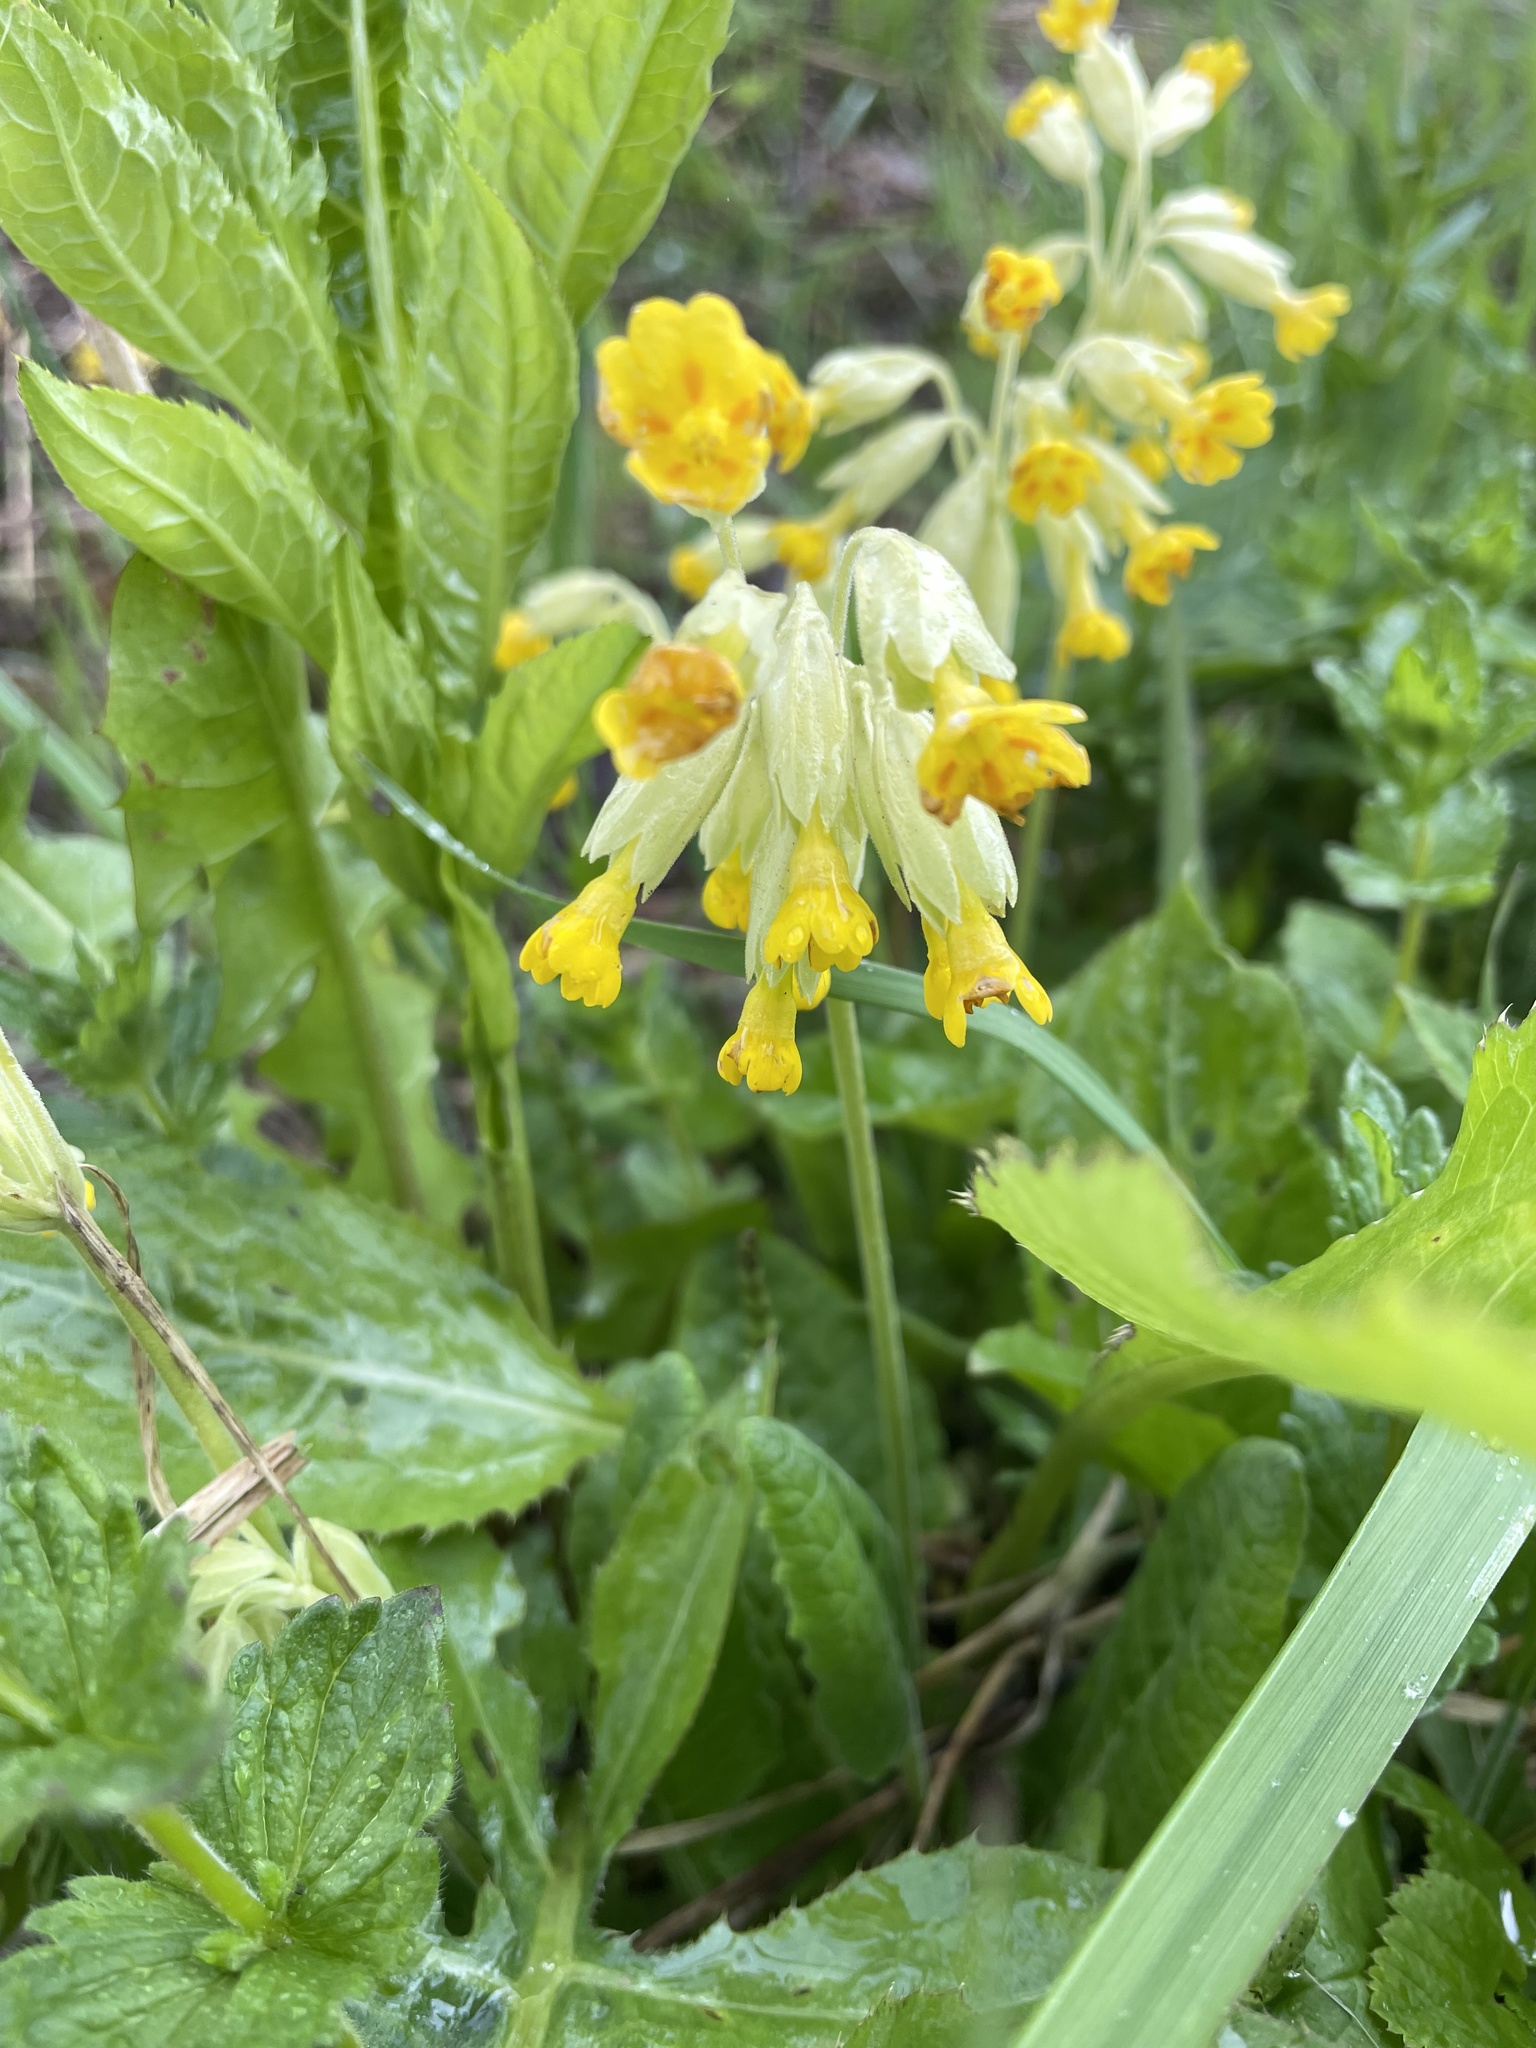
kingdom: Plantae
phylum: Tracheophyta
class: Magnoliopsida
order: Ericales
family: Primulaceae
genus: Primula
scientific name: Primula veris
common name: Cowslip
